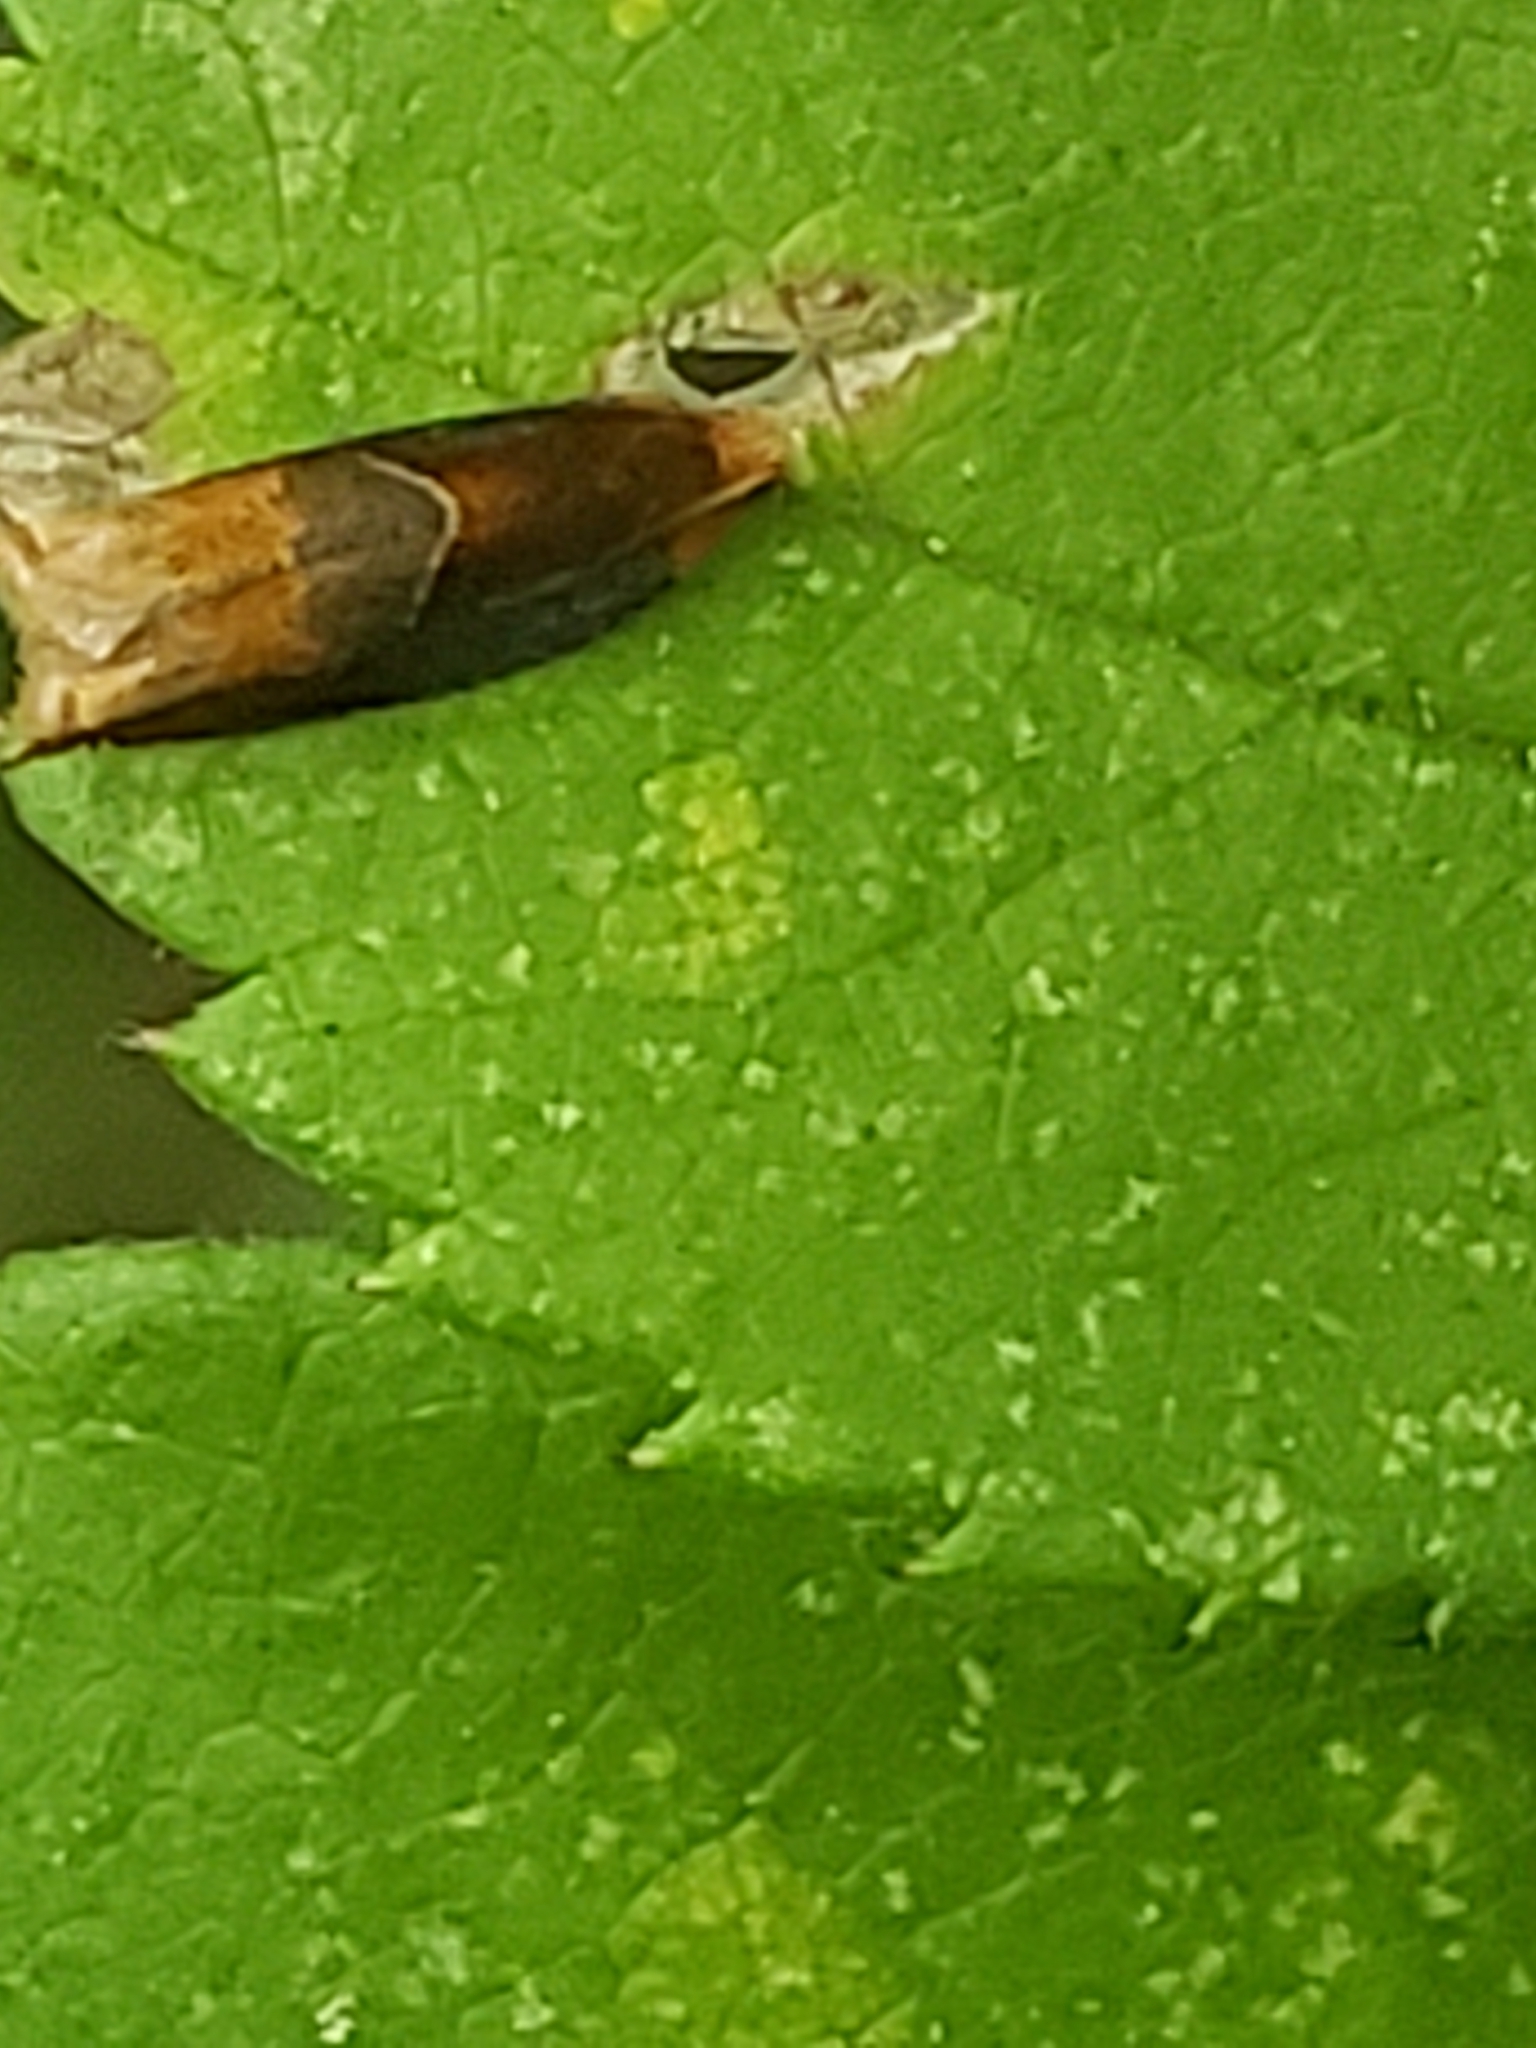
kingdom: Animalia
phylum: Arthropoda
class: Insecta
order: Lepidoptera
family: Tortricidae
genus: Ancylis
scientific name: Ancylis divisana
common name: Two-toned ancylis moth
